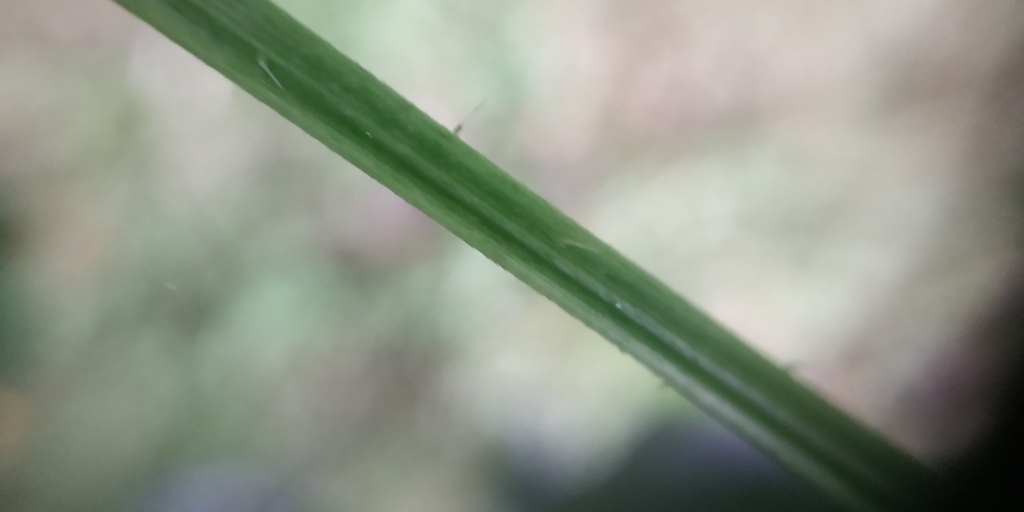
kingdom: Plantae
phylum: Tracheophyta
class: Magnoliopsida
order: Rosales
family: Urticaceae
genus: Urtica
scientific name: Urtica dioica
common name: Common nettle
